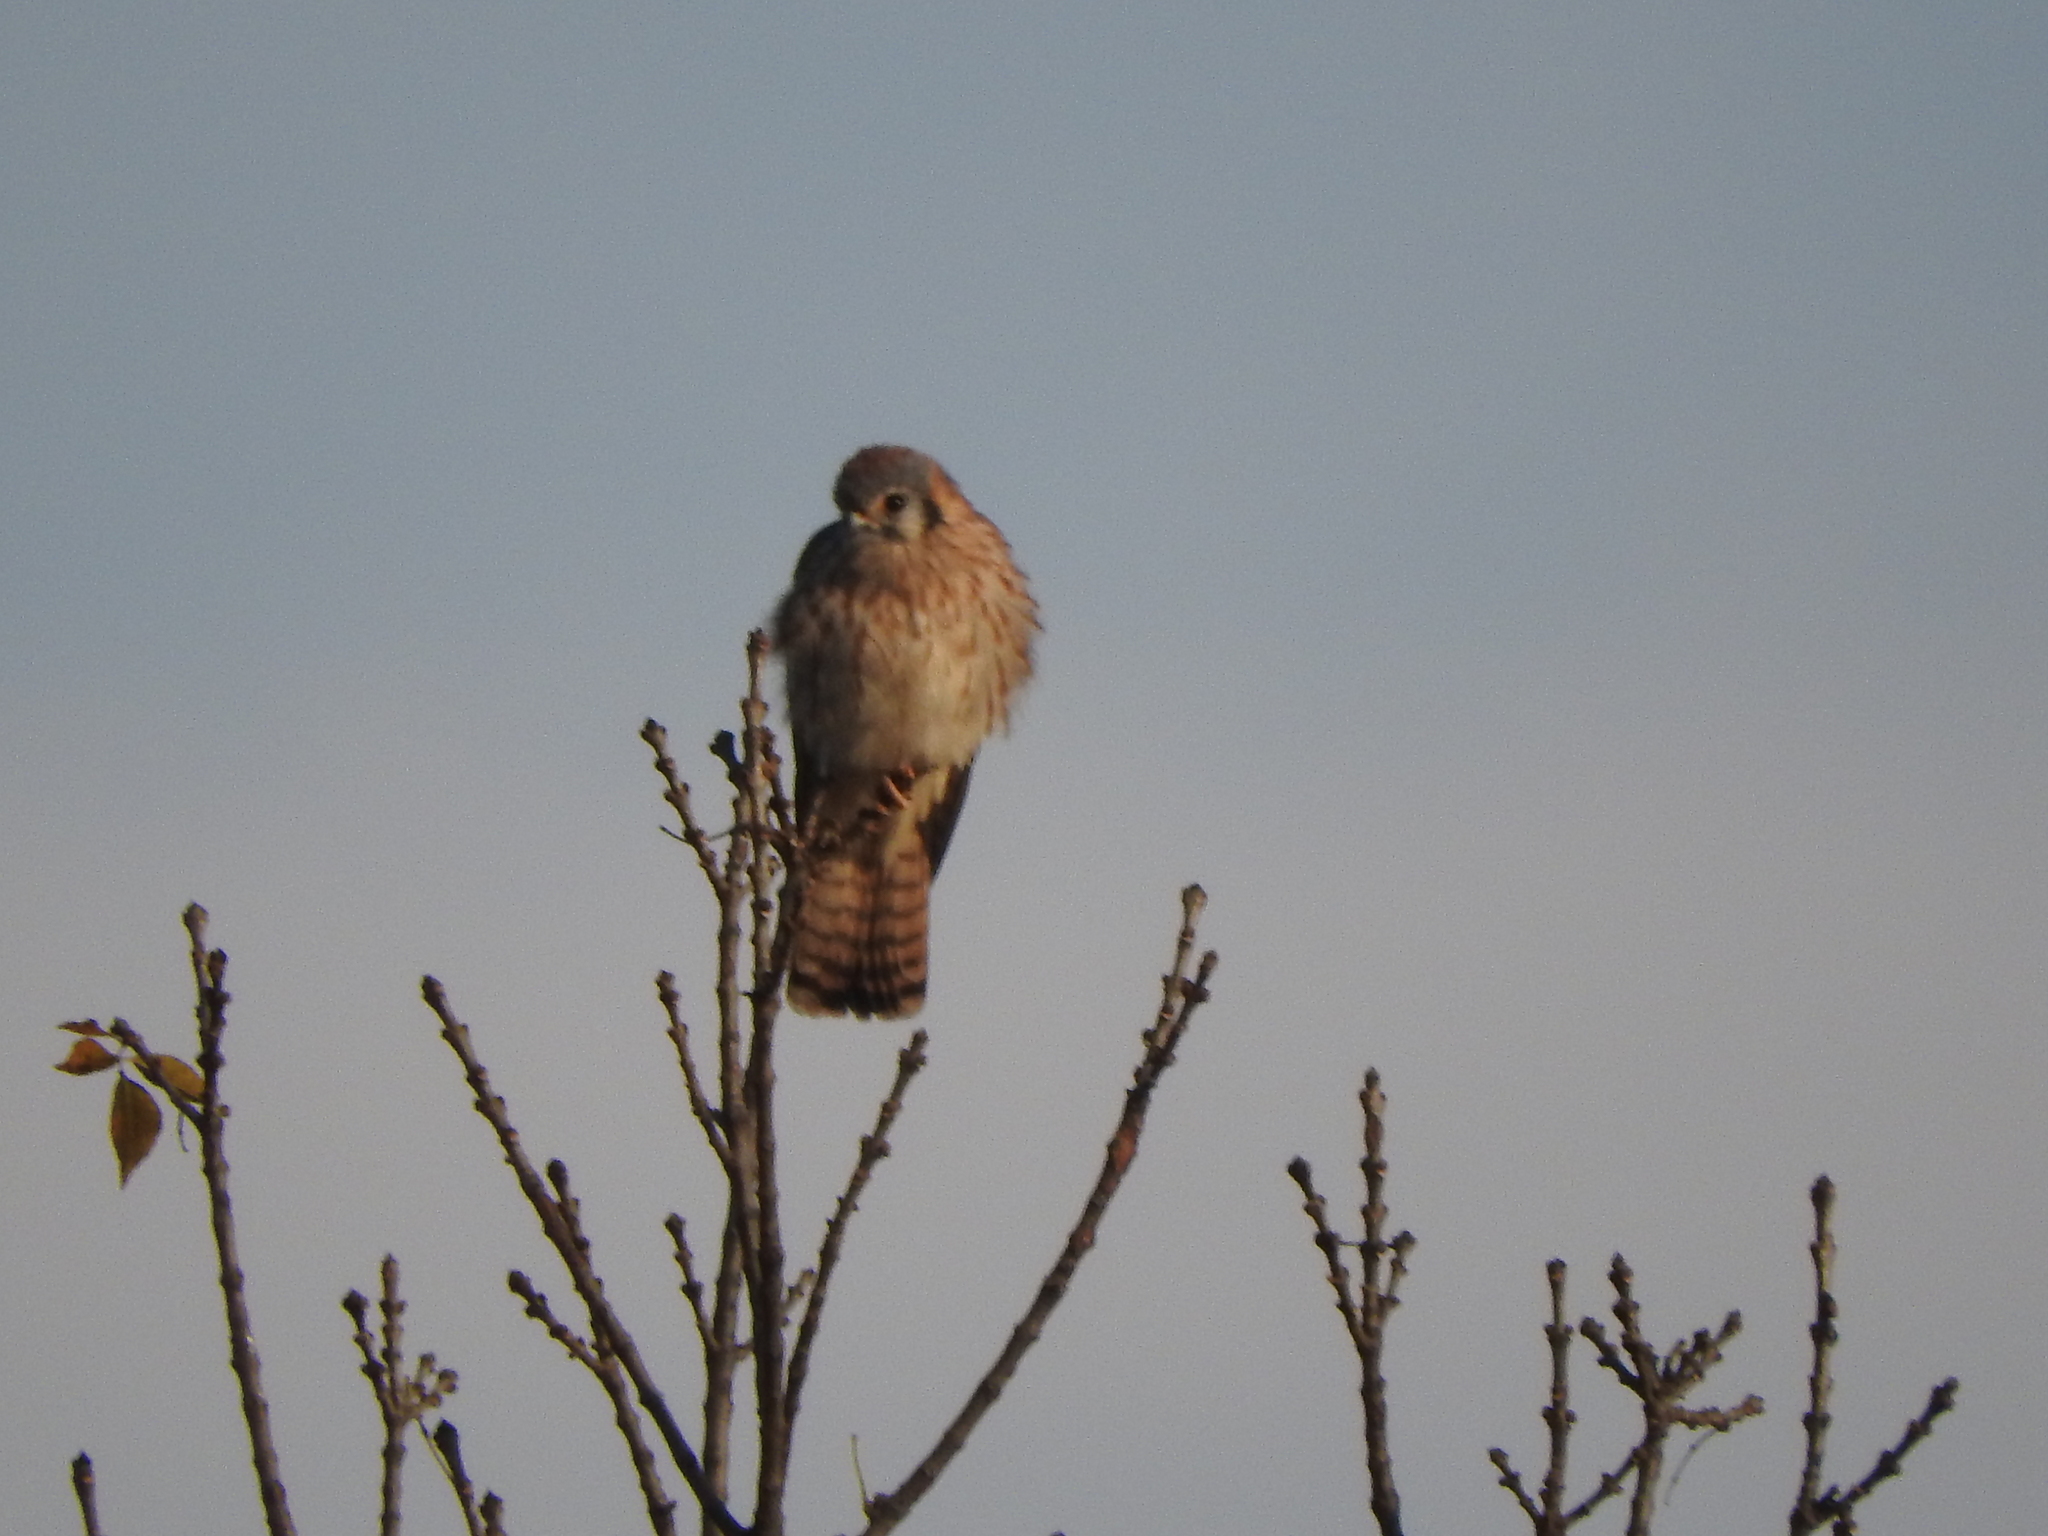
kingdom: Animalia
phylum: Chordata
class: Aves
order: Falconiformes
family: Falconidae
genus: Falco
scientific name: Falco sparverius
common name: American kestrel
